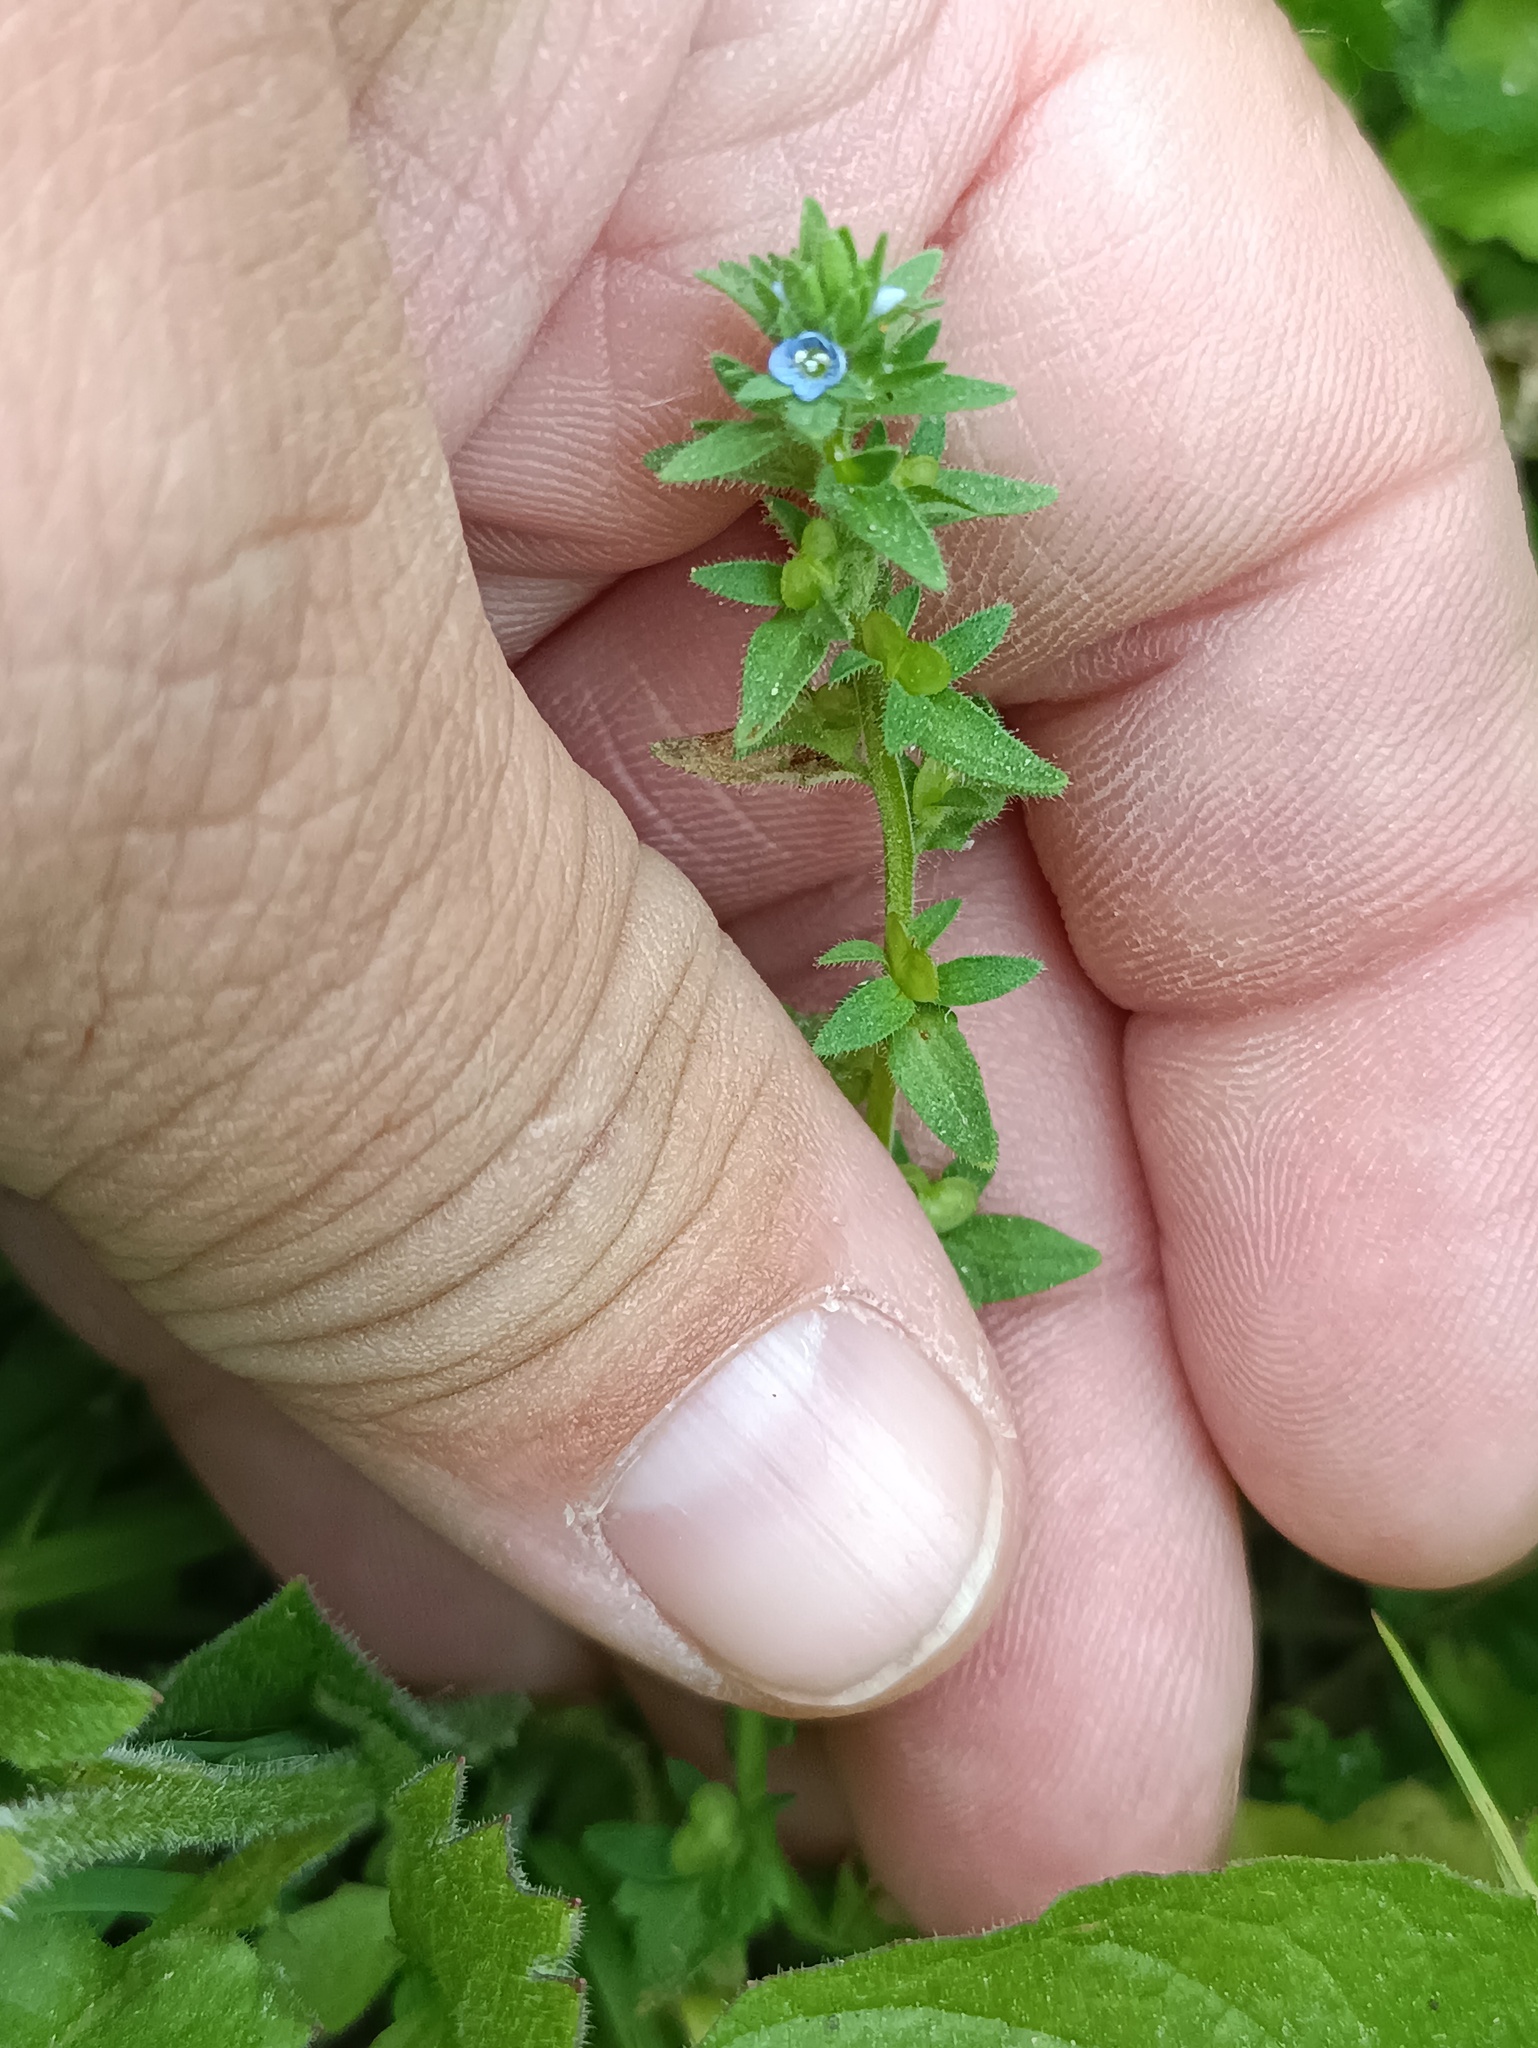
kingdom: Plantae
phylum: Tracheophyta
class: Magnoliopsida
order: Lamiales
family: Plantaginaceae
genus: Veronica
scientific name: Veronica arvensis
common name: Corn speedwell
